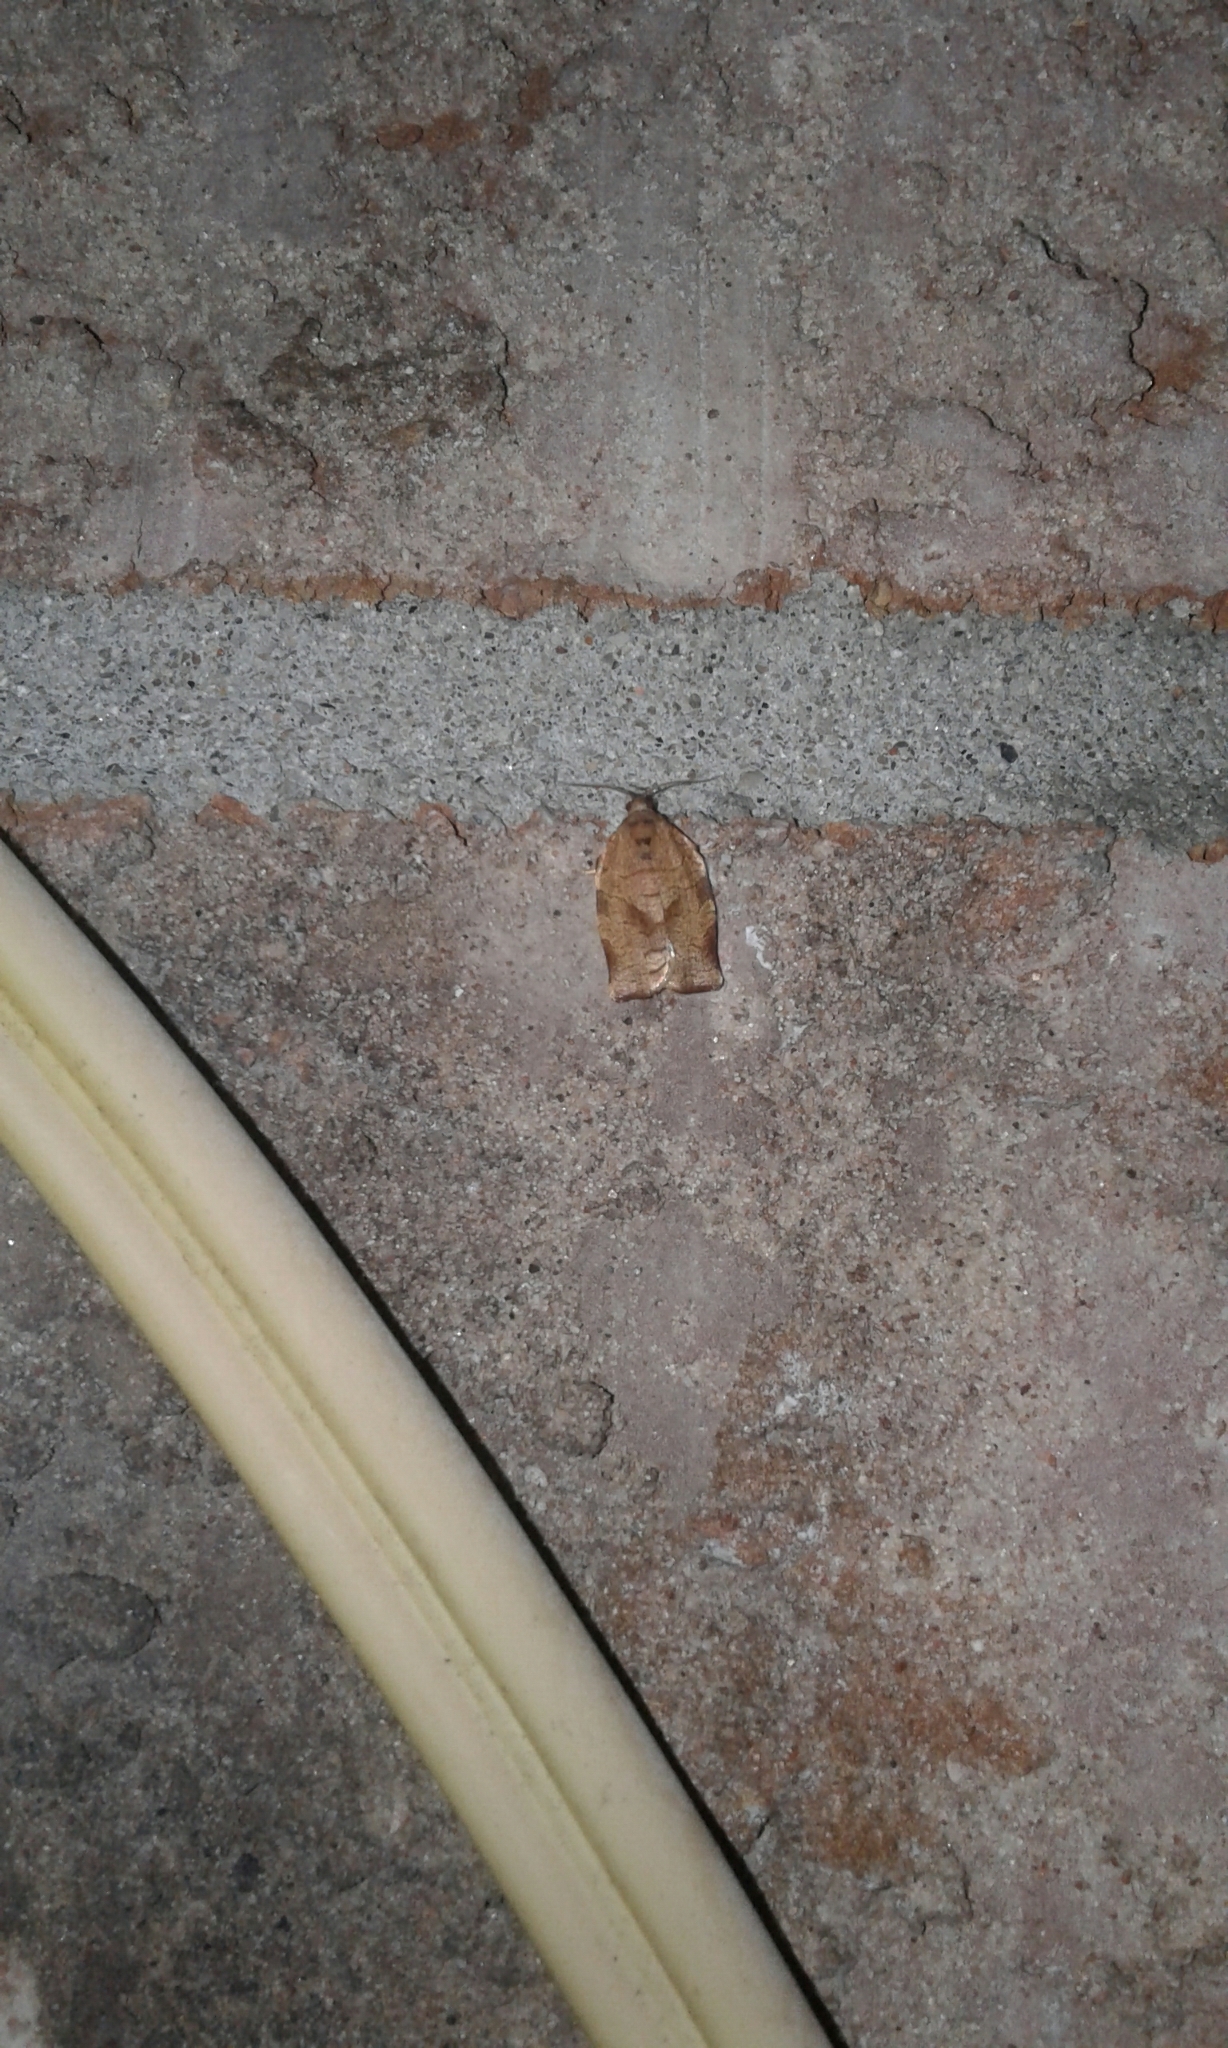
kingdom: Animalia
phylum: Arthropoda
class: Insecta
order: Lepidoptera
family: Tortricidae
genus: Choristoneura
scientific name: Choristoneura rosaceana
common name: Oblique-banded leafroller moth
